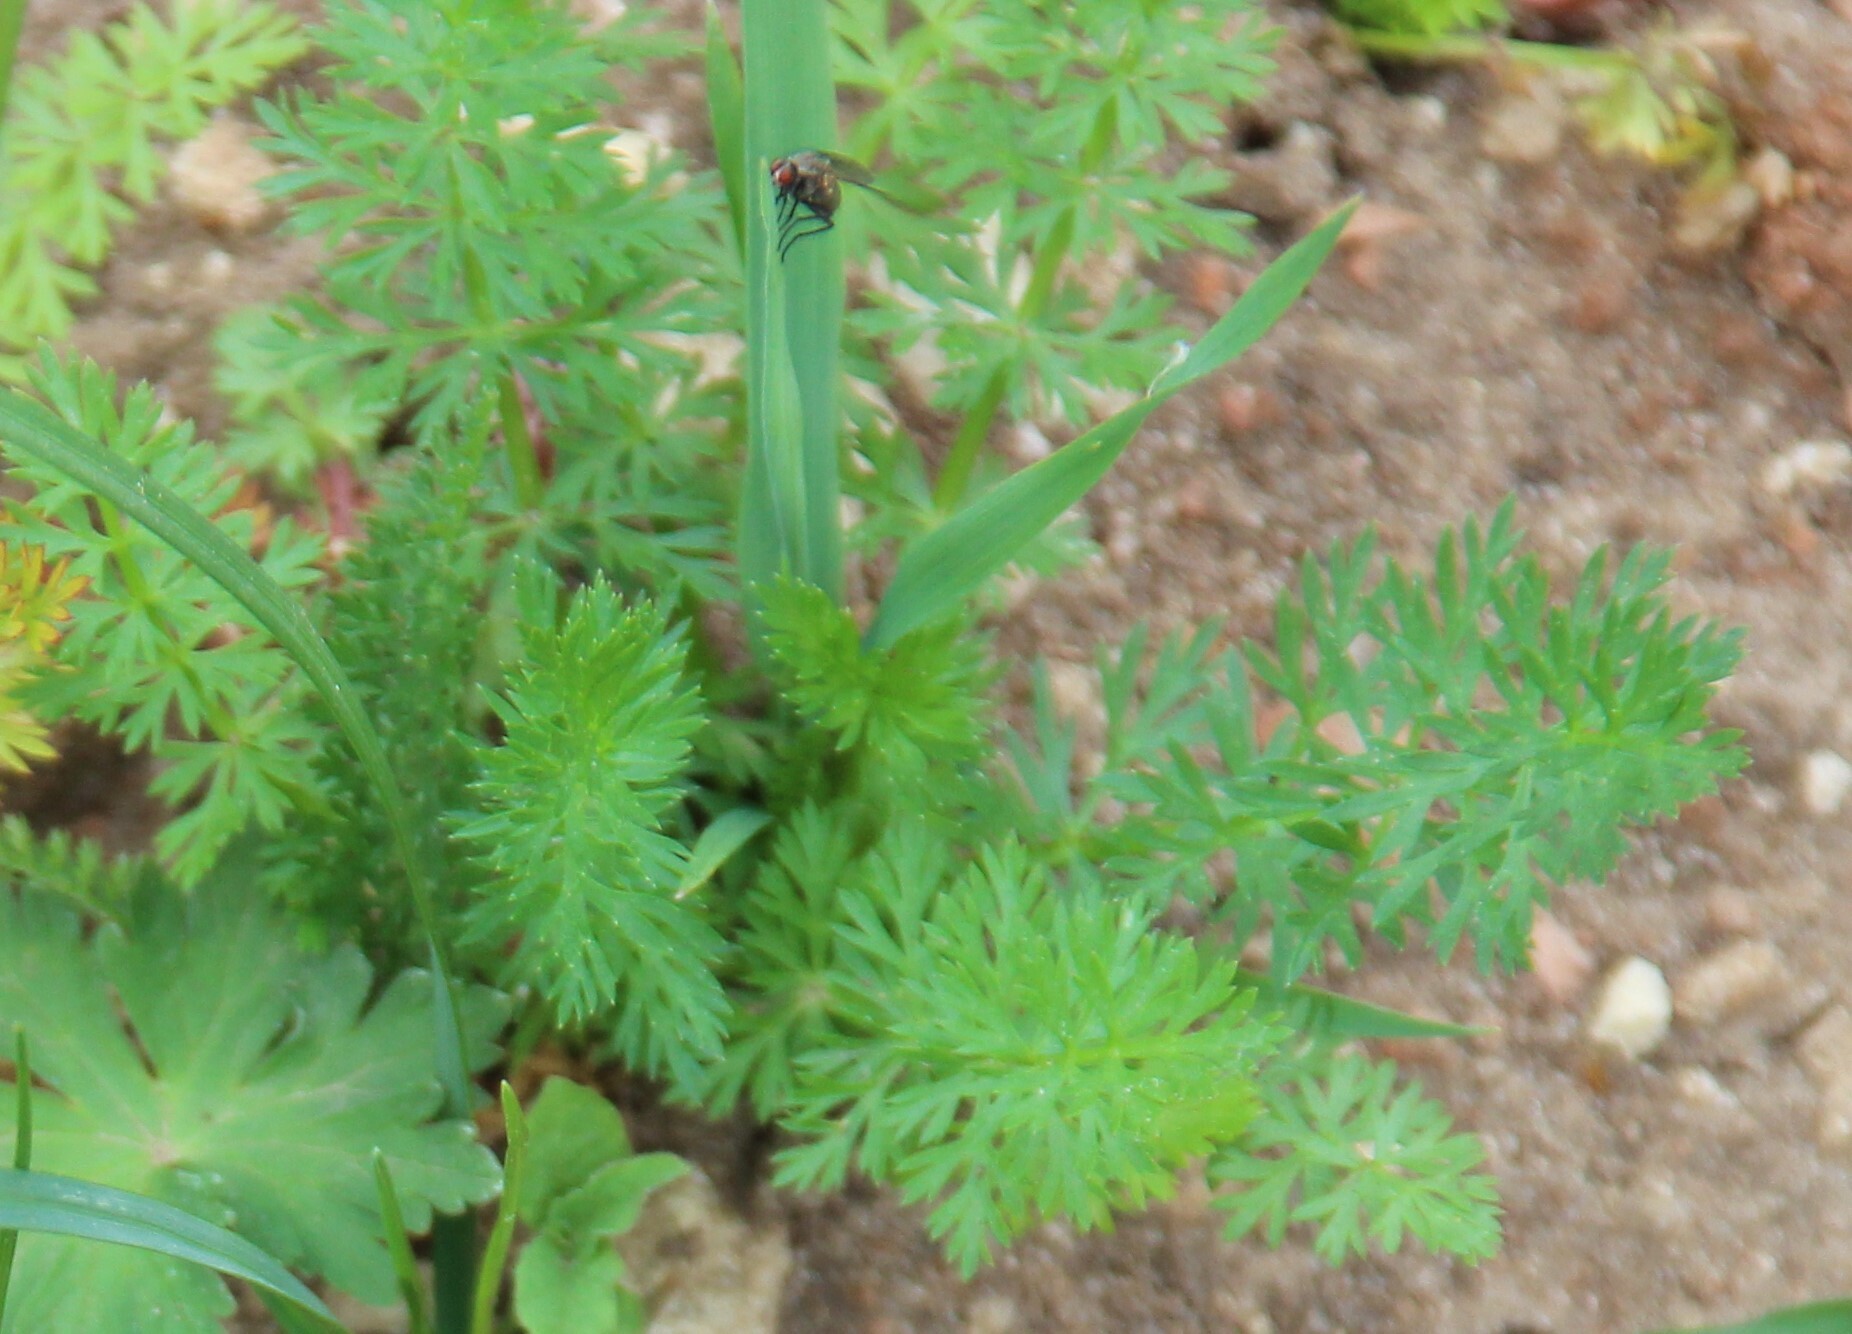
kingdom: Plantae
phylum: Tracheophyta
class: Magnoliopsida
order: Apiales
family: Apiaceae
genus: Carum
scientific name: Carum carvi
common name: Caraway
